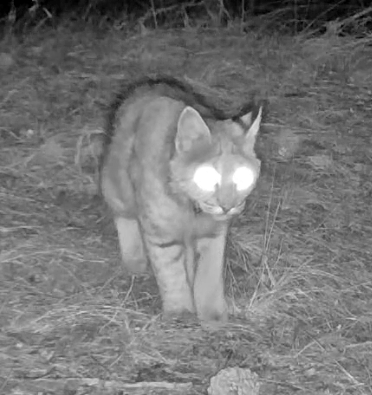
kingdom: Animalia
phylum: Chordata
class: Mammalia
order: Carnivora
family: Felidae
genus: Lynx
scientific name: Lynx rufus
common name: Bobcat
